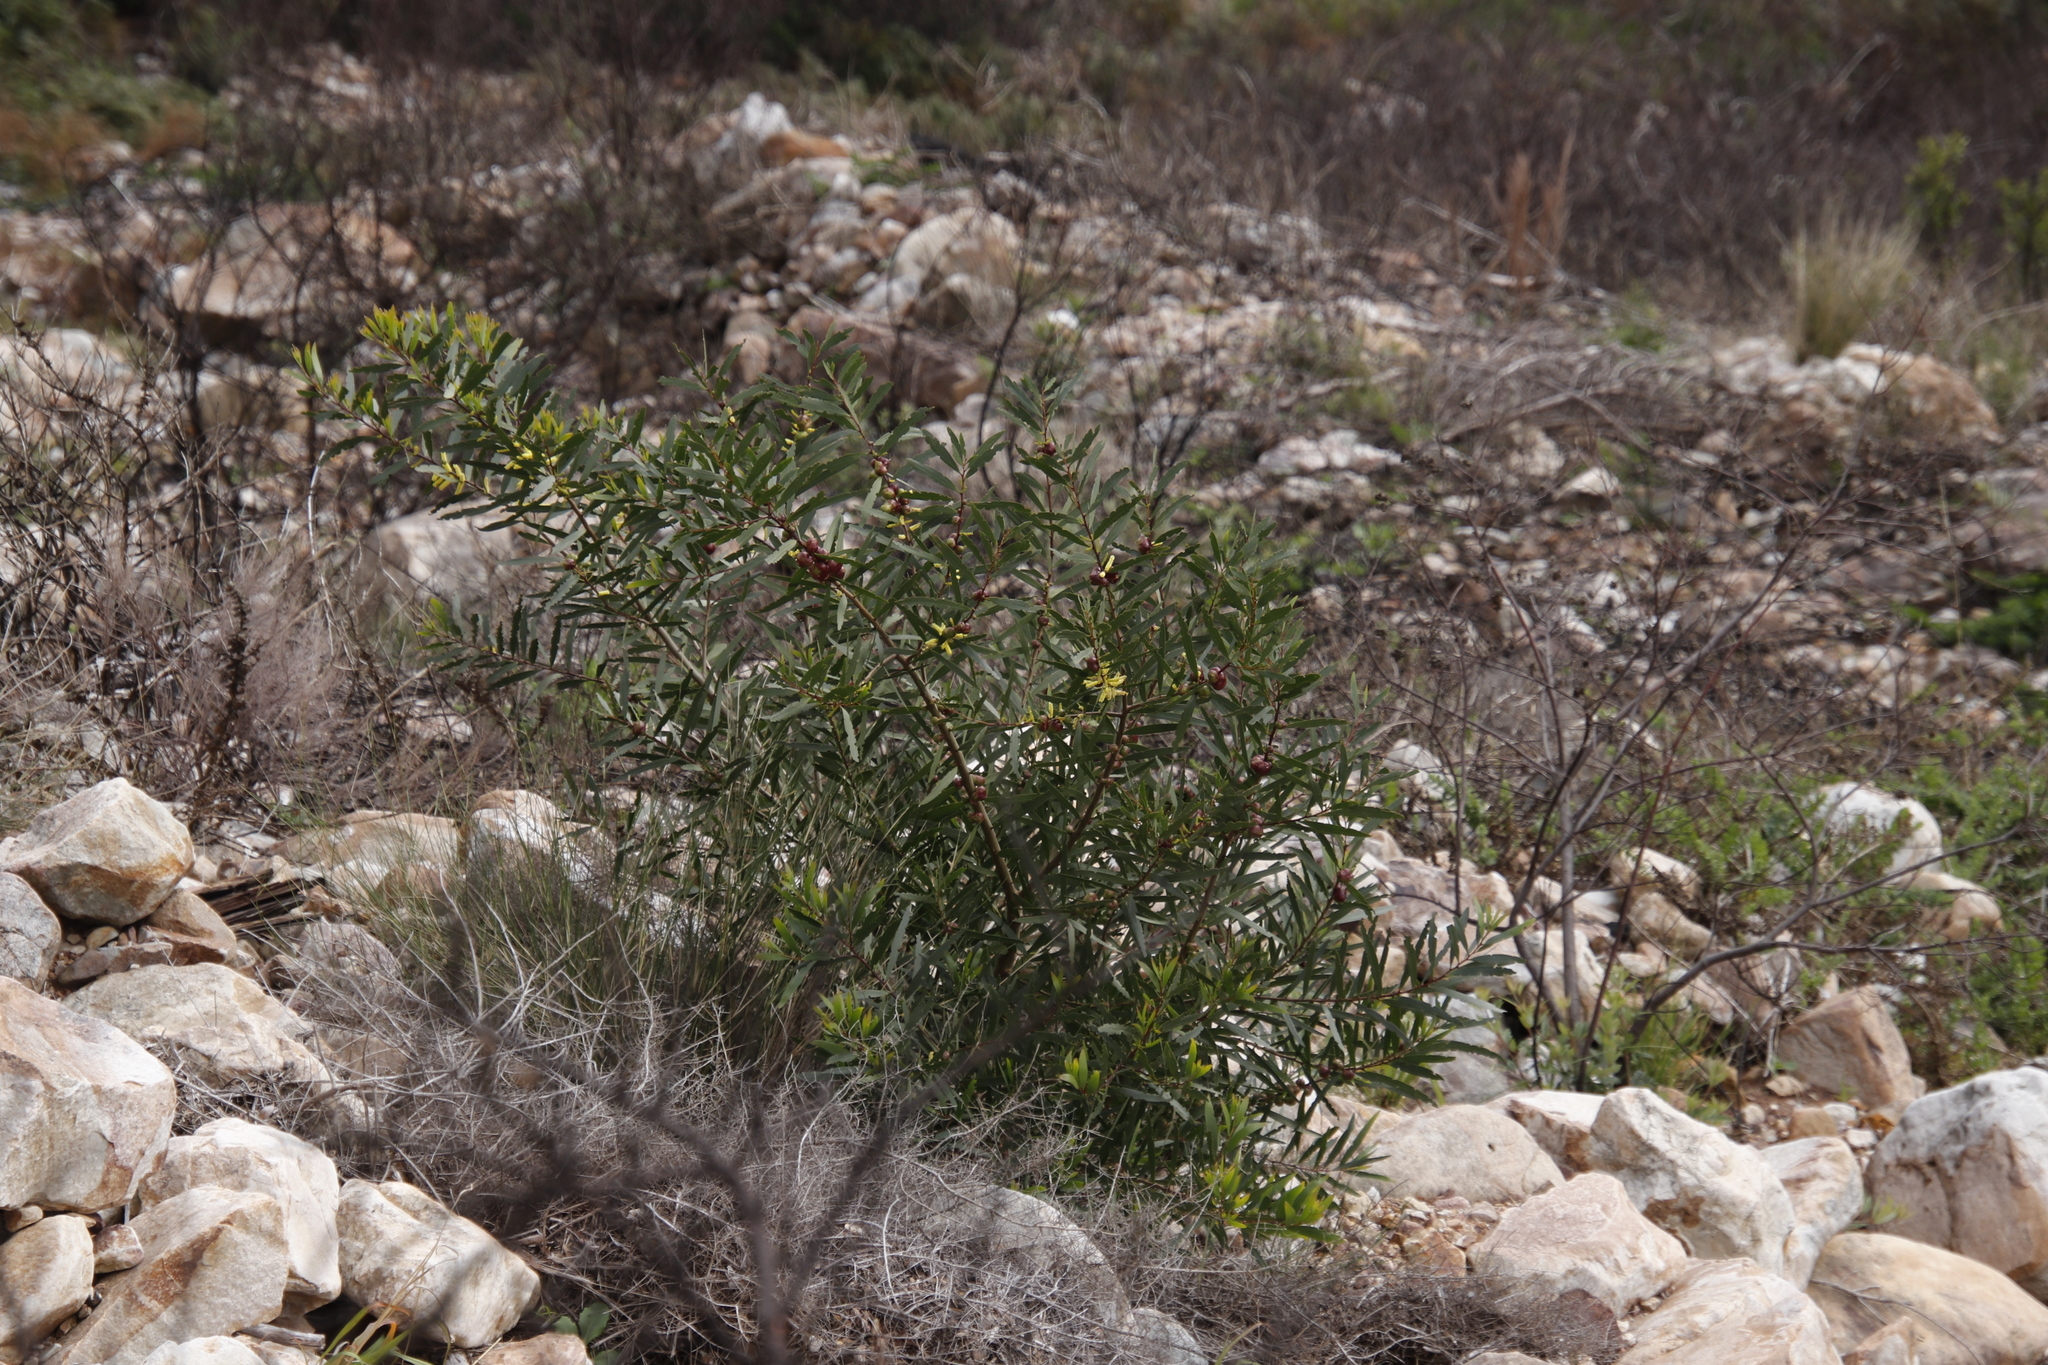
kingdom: Plantae
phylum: Tracheophyta
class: Magnoliopsida
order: Fabales
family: Fabaceae
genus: Acacia
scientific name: Acacia longifolia
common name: Sydney golden wattle
